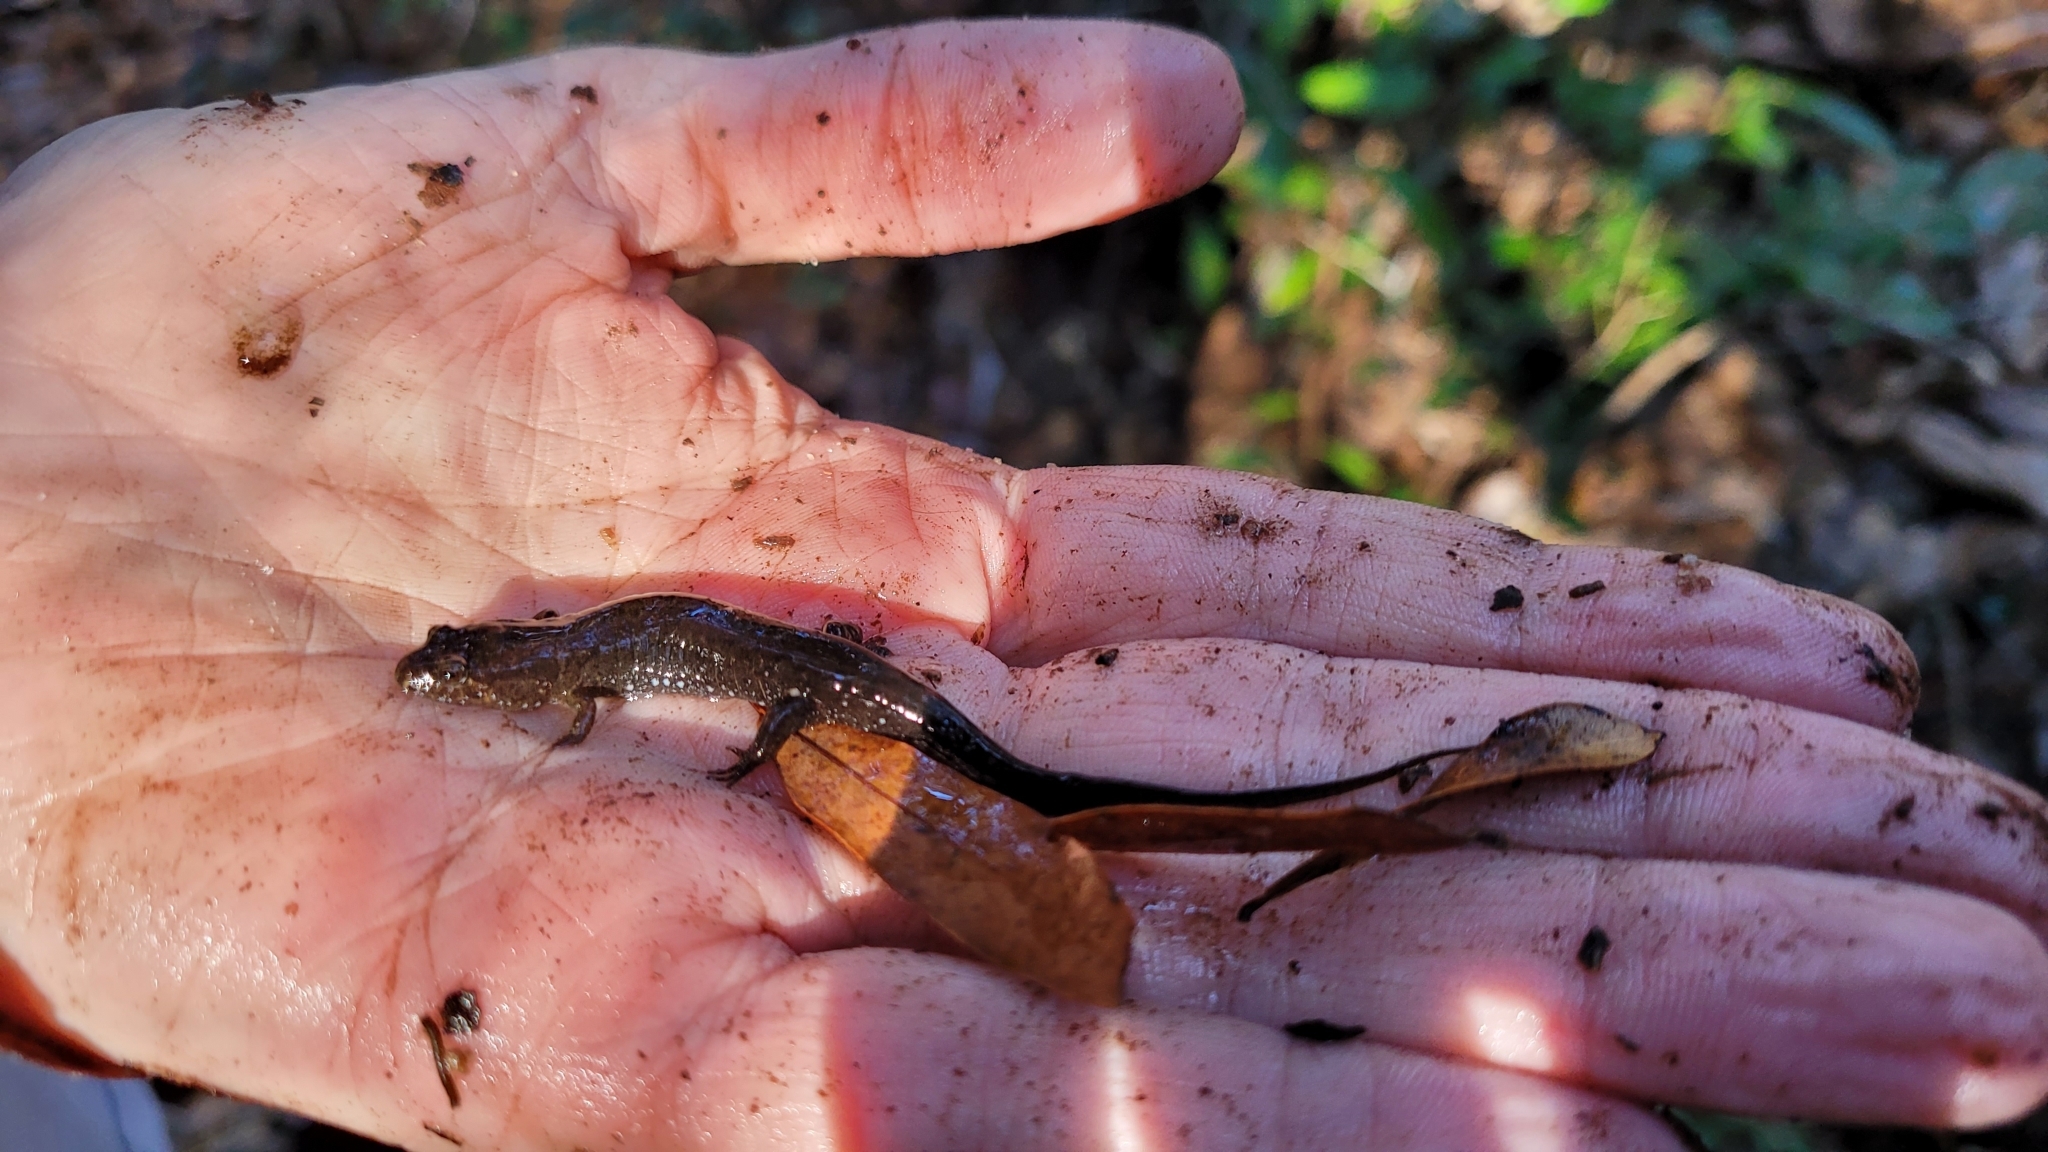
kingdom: Animalia
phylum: Chordata
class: Amphibia
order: Caudata
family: Plethodontidae
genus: Desmognathus
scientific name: Desmognathus conanti
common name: Spotted dusky salamander
